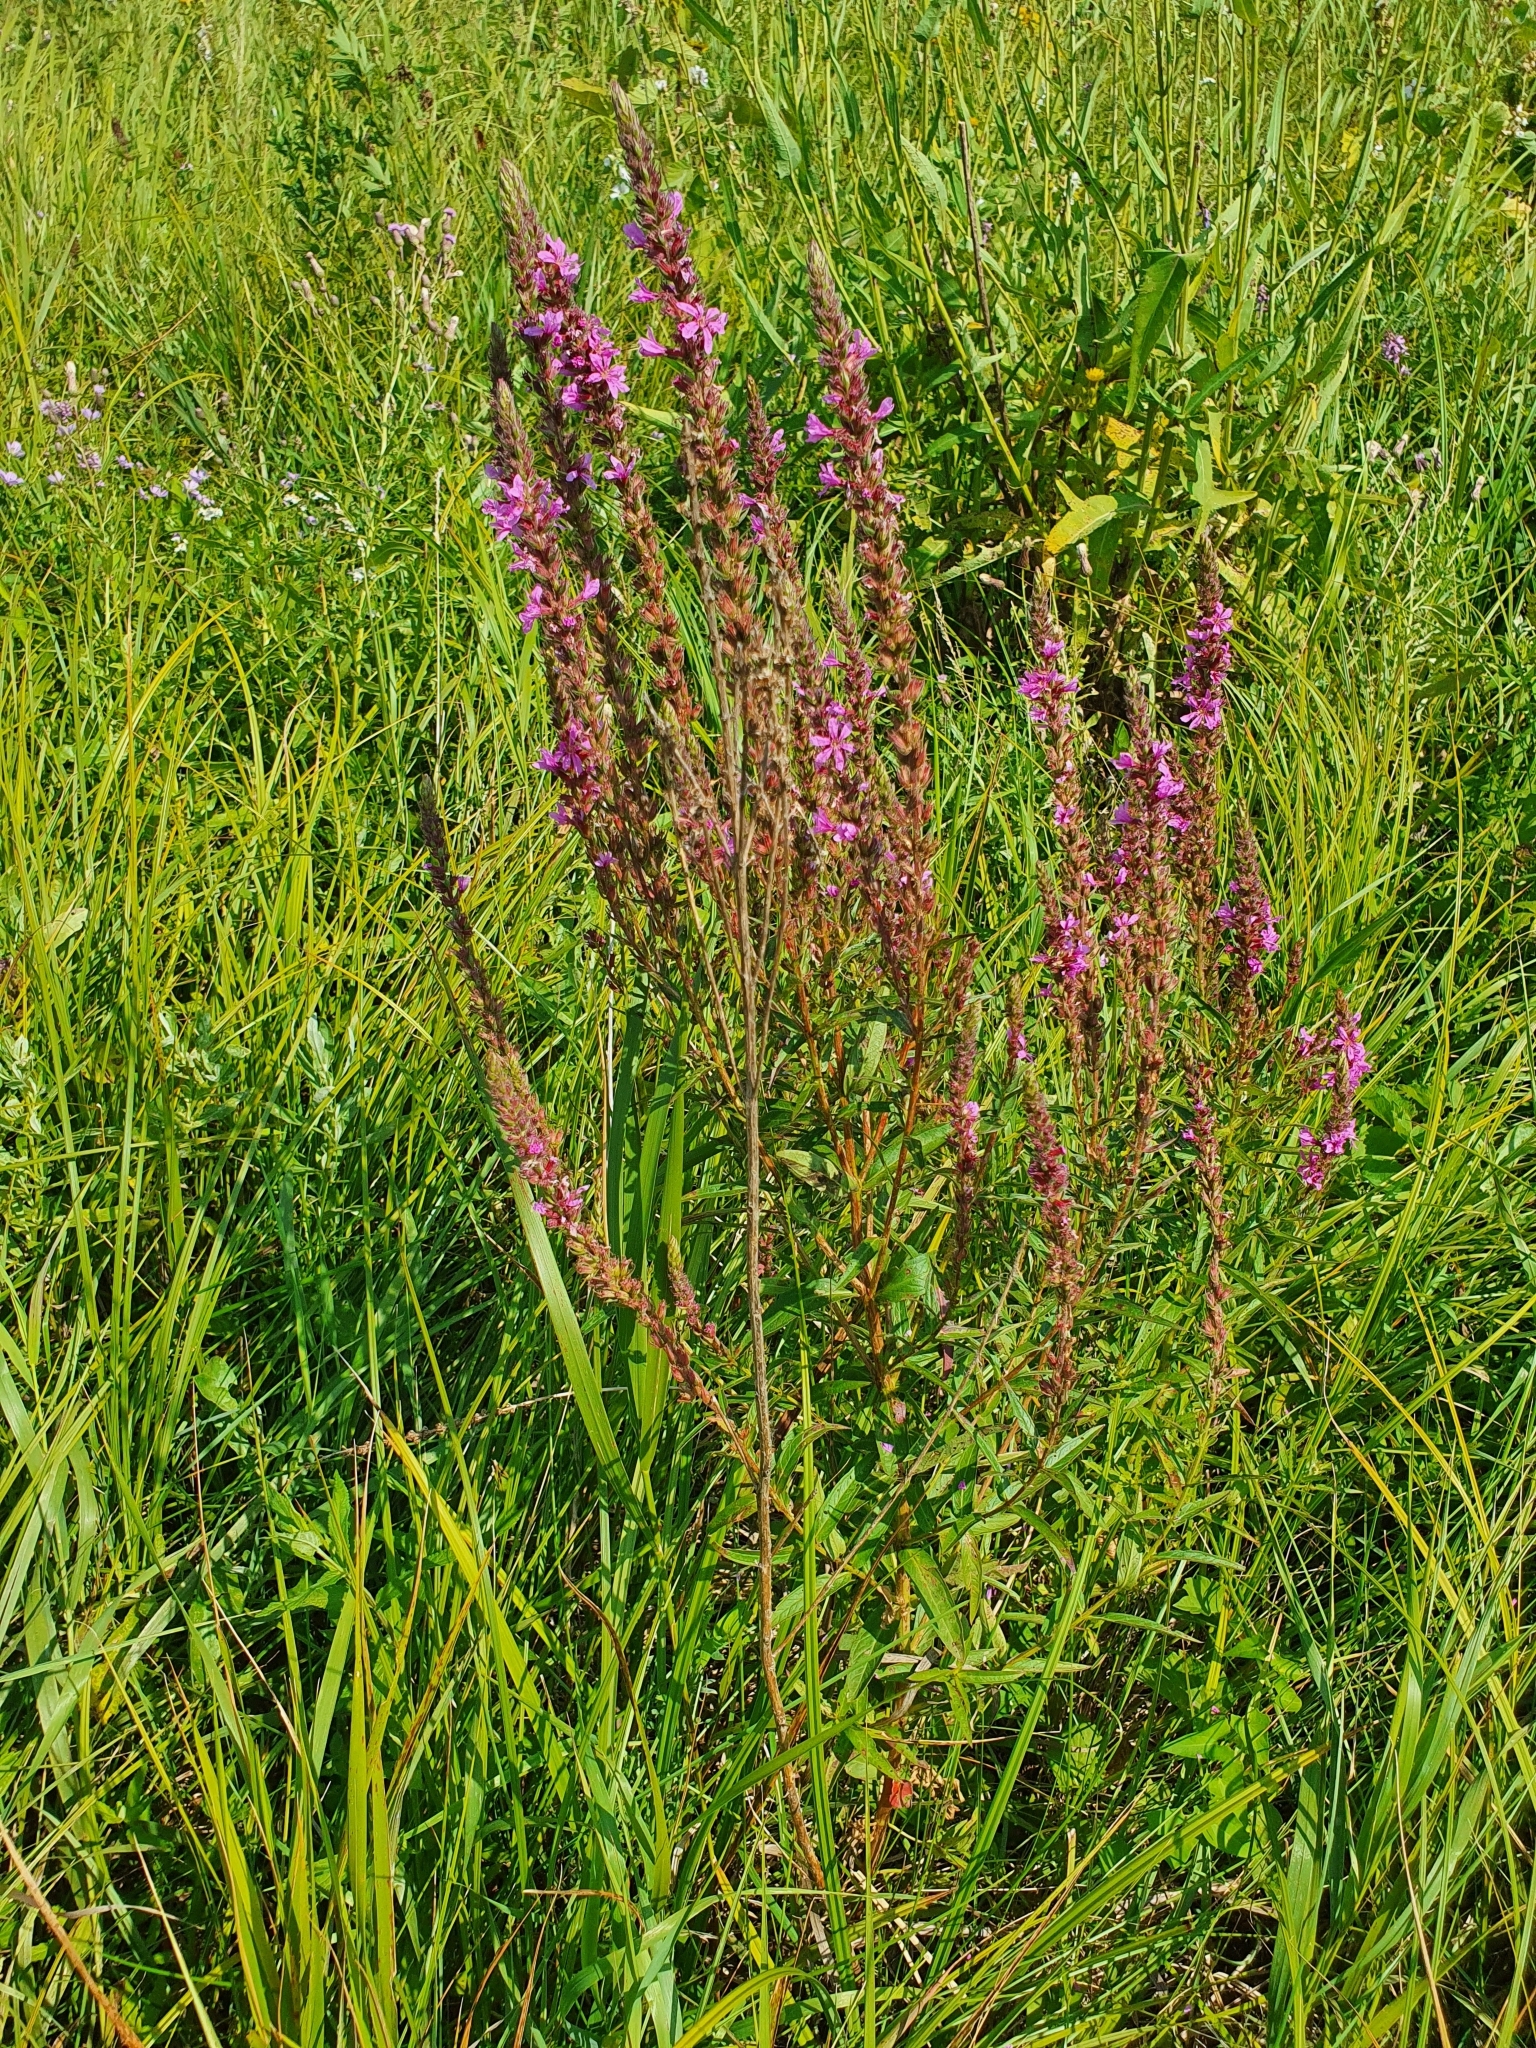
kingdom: Plantae
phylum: Tracheophyta
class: Magnoliopsida
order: Myrtales
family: Lythraceae
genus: Lythrum
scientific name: Lythrum salicaria
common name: Purple loosestrife
